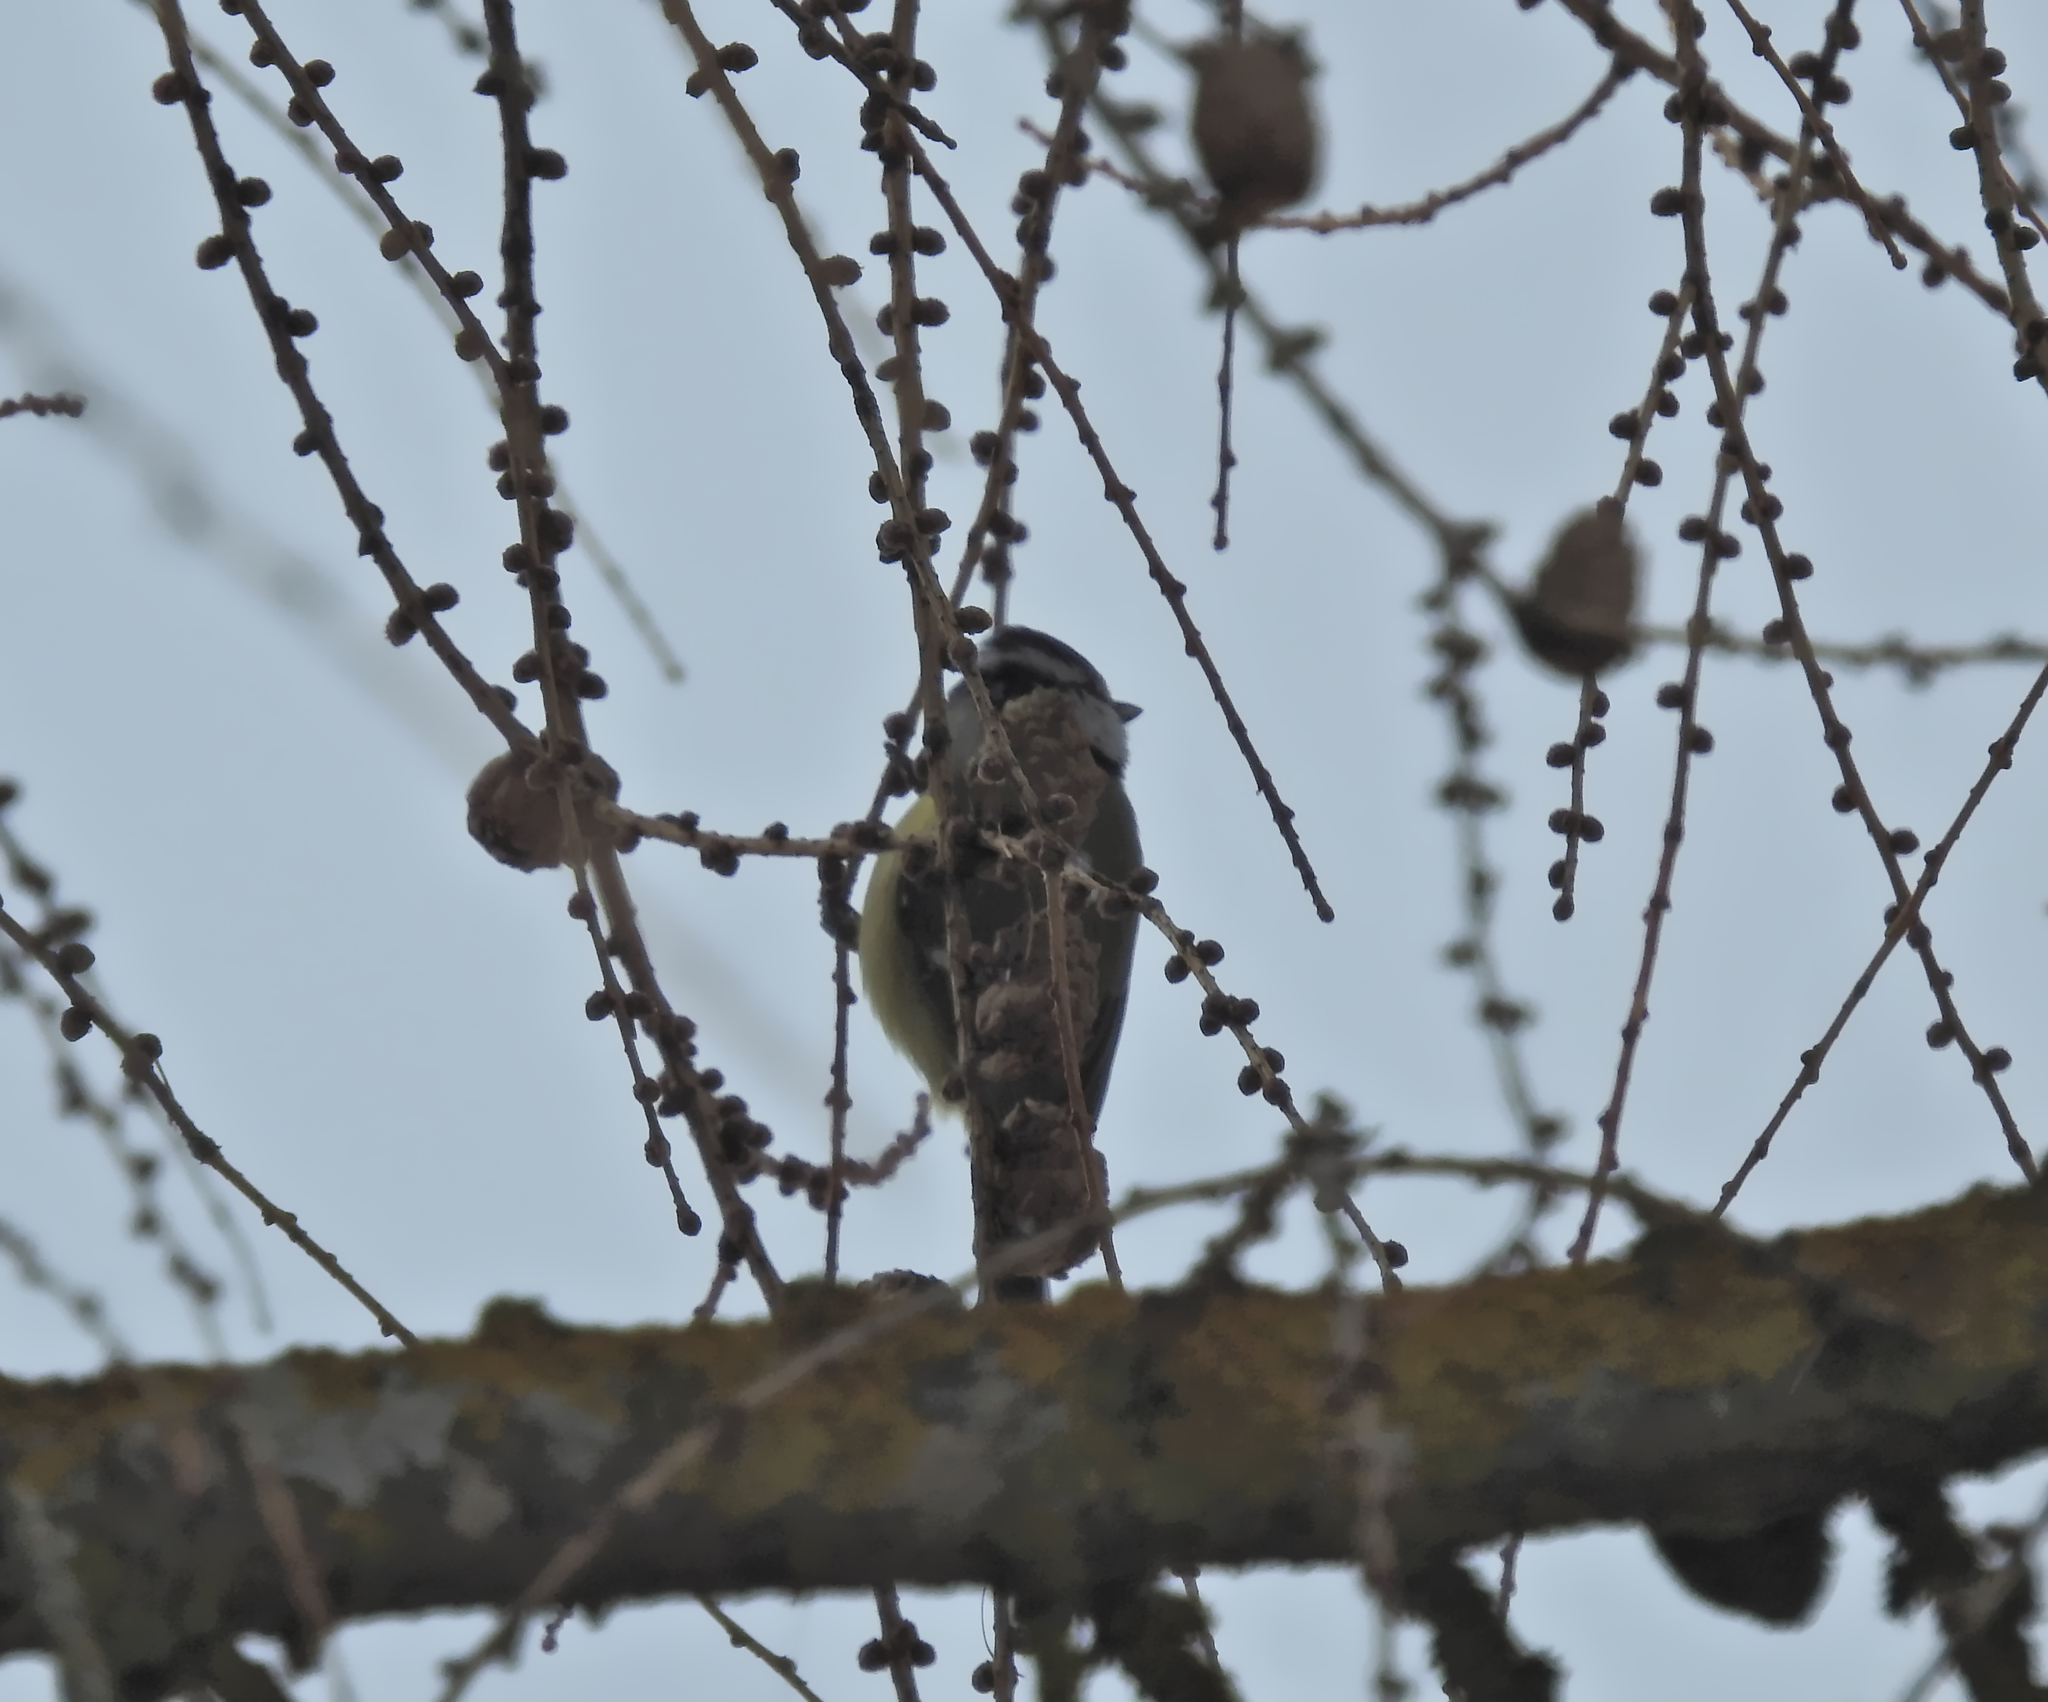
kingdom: Animalia
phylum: Chordata
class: Aves
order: Passeriformes
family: Paridae
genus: Cyanistes
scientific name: Cyanistes caeruleus
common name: Eurasian blue tit
